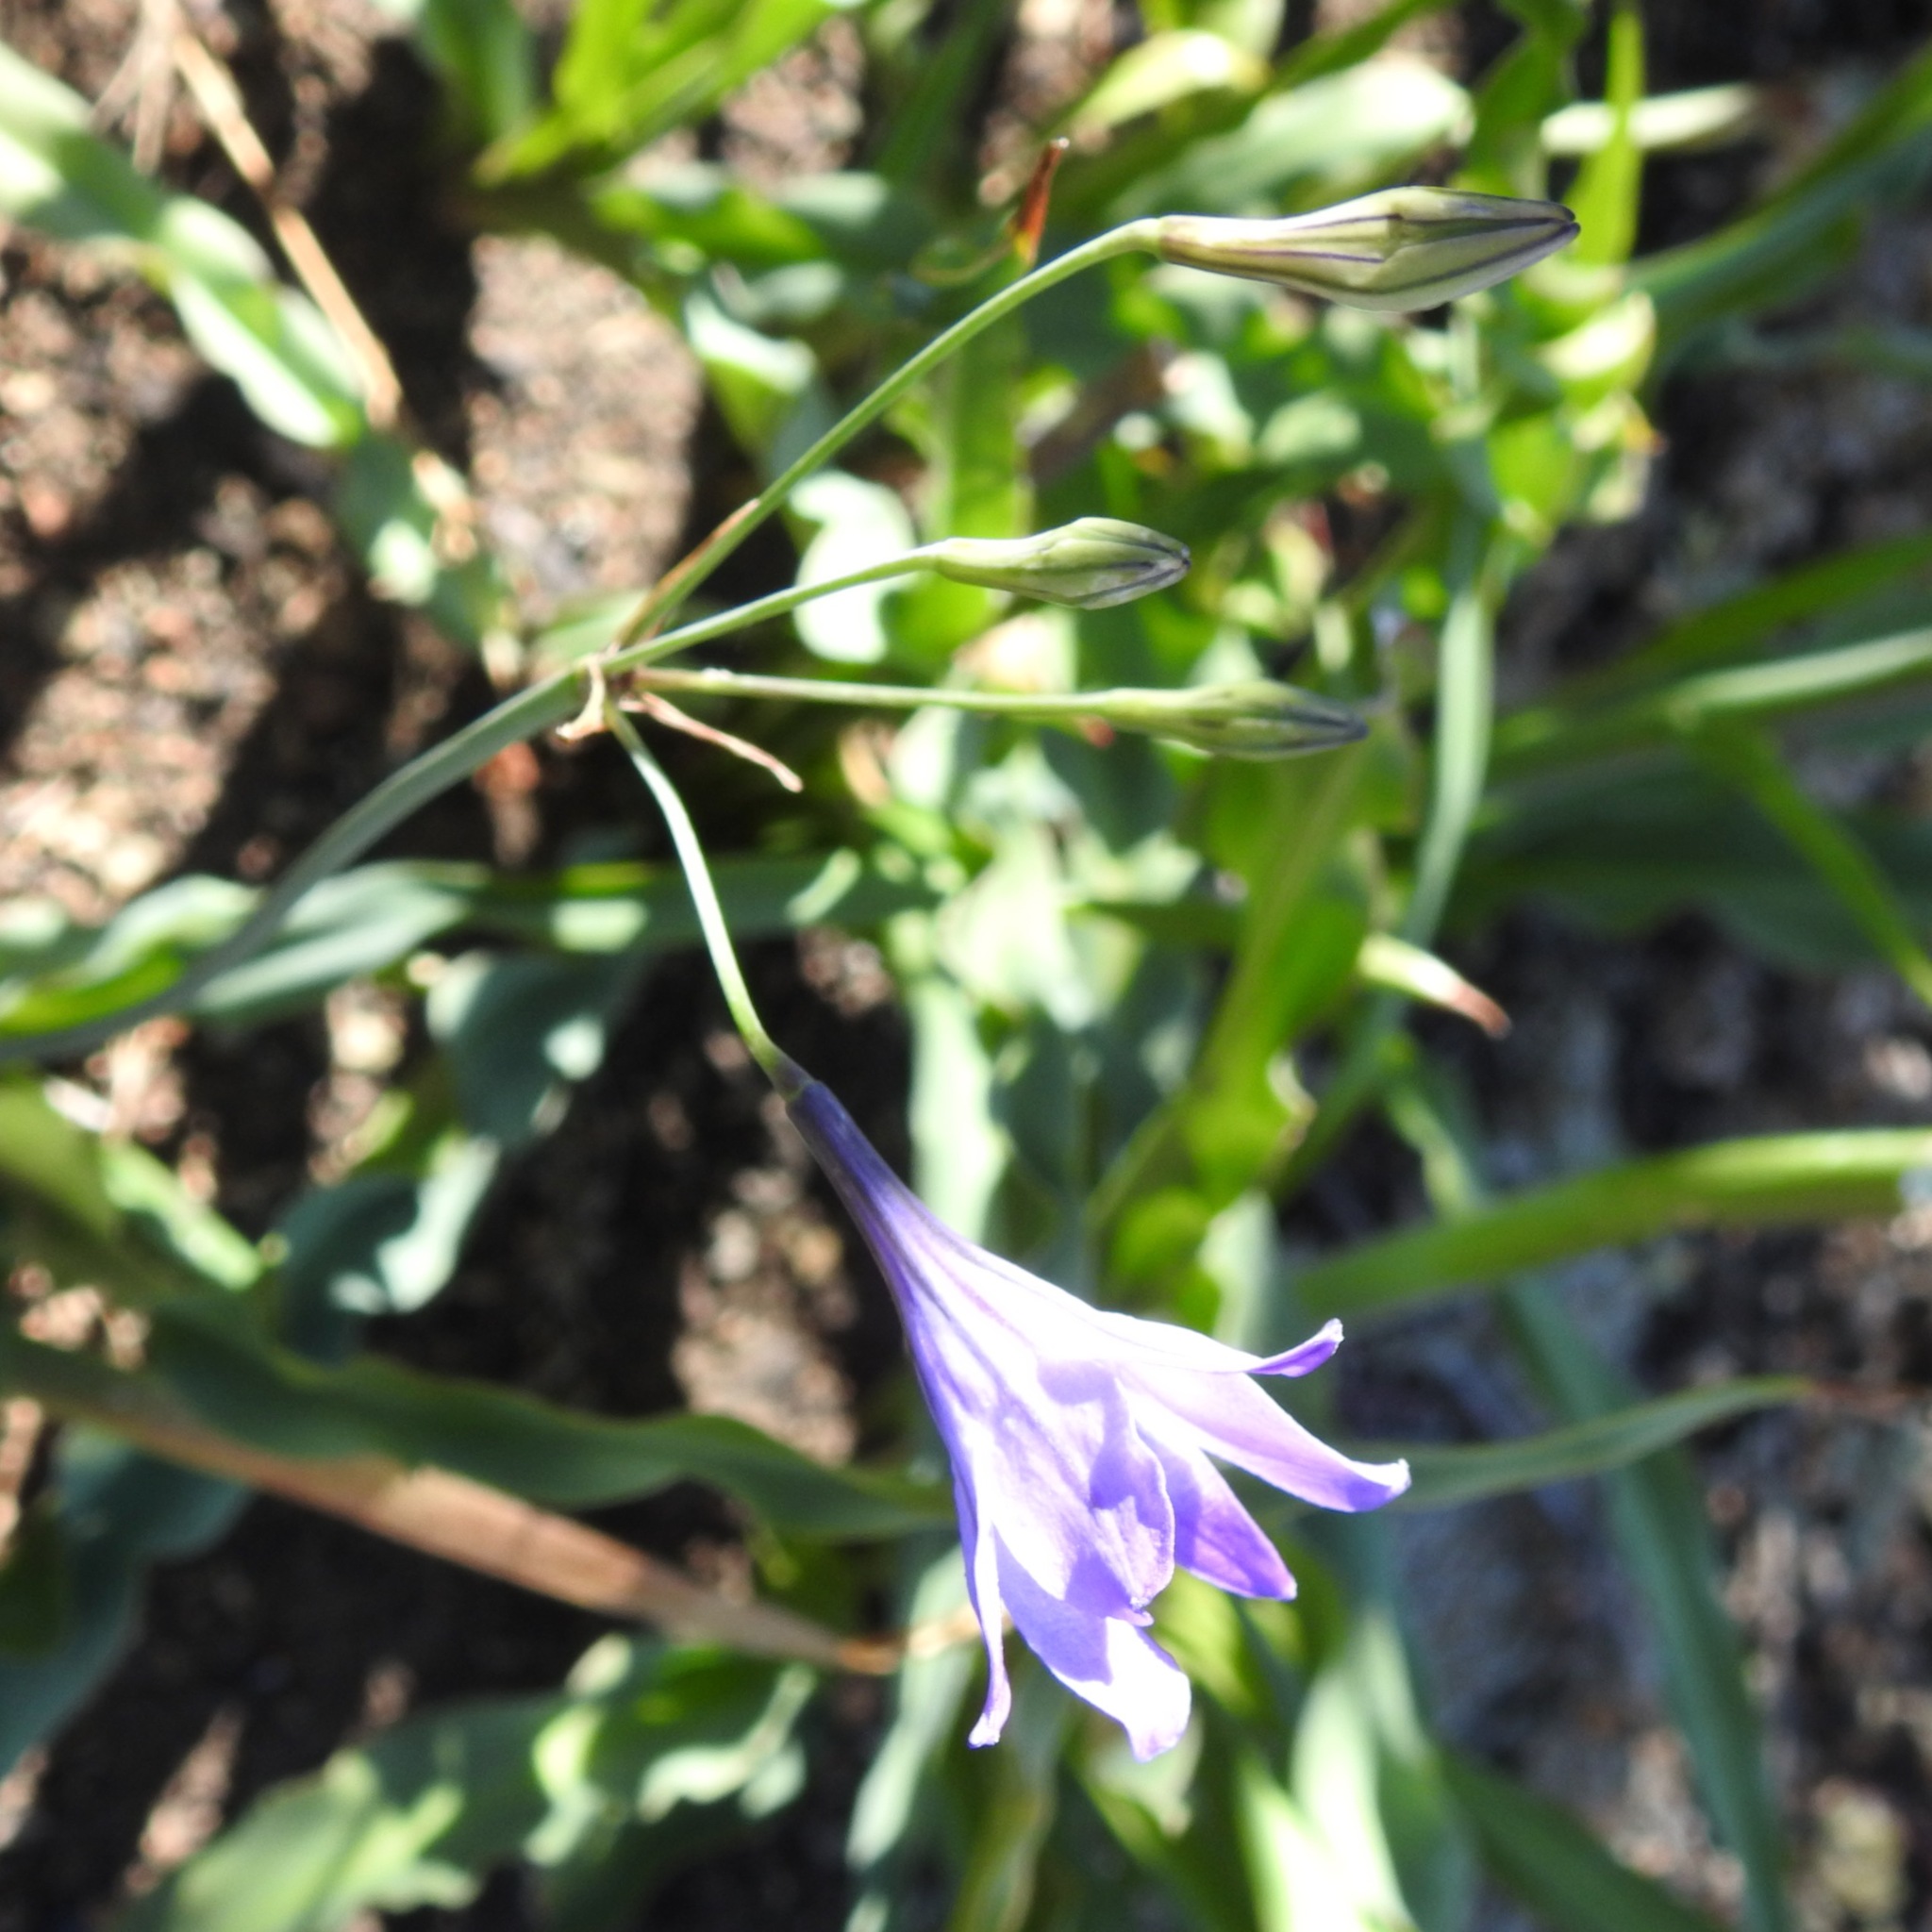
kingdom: Plantae
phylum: Tracheophyta
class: Liliopsida
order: Asparagales
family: Asparagaceae
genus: Triteleia
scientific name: Triteleia laxa
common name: Triplet-lily
